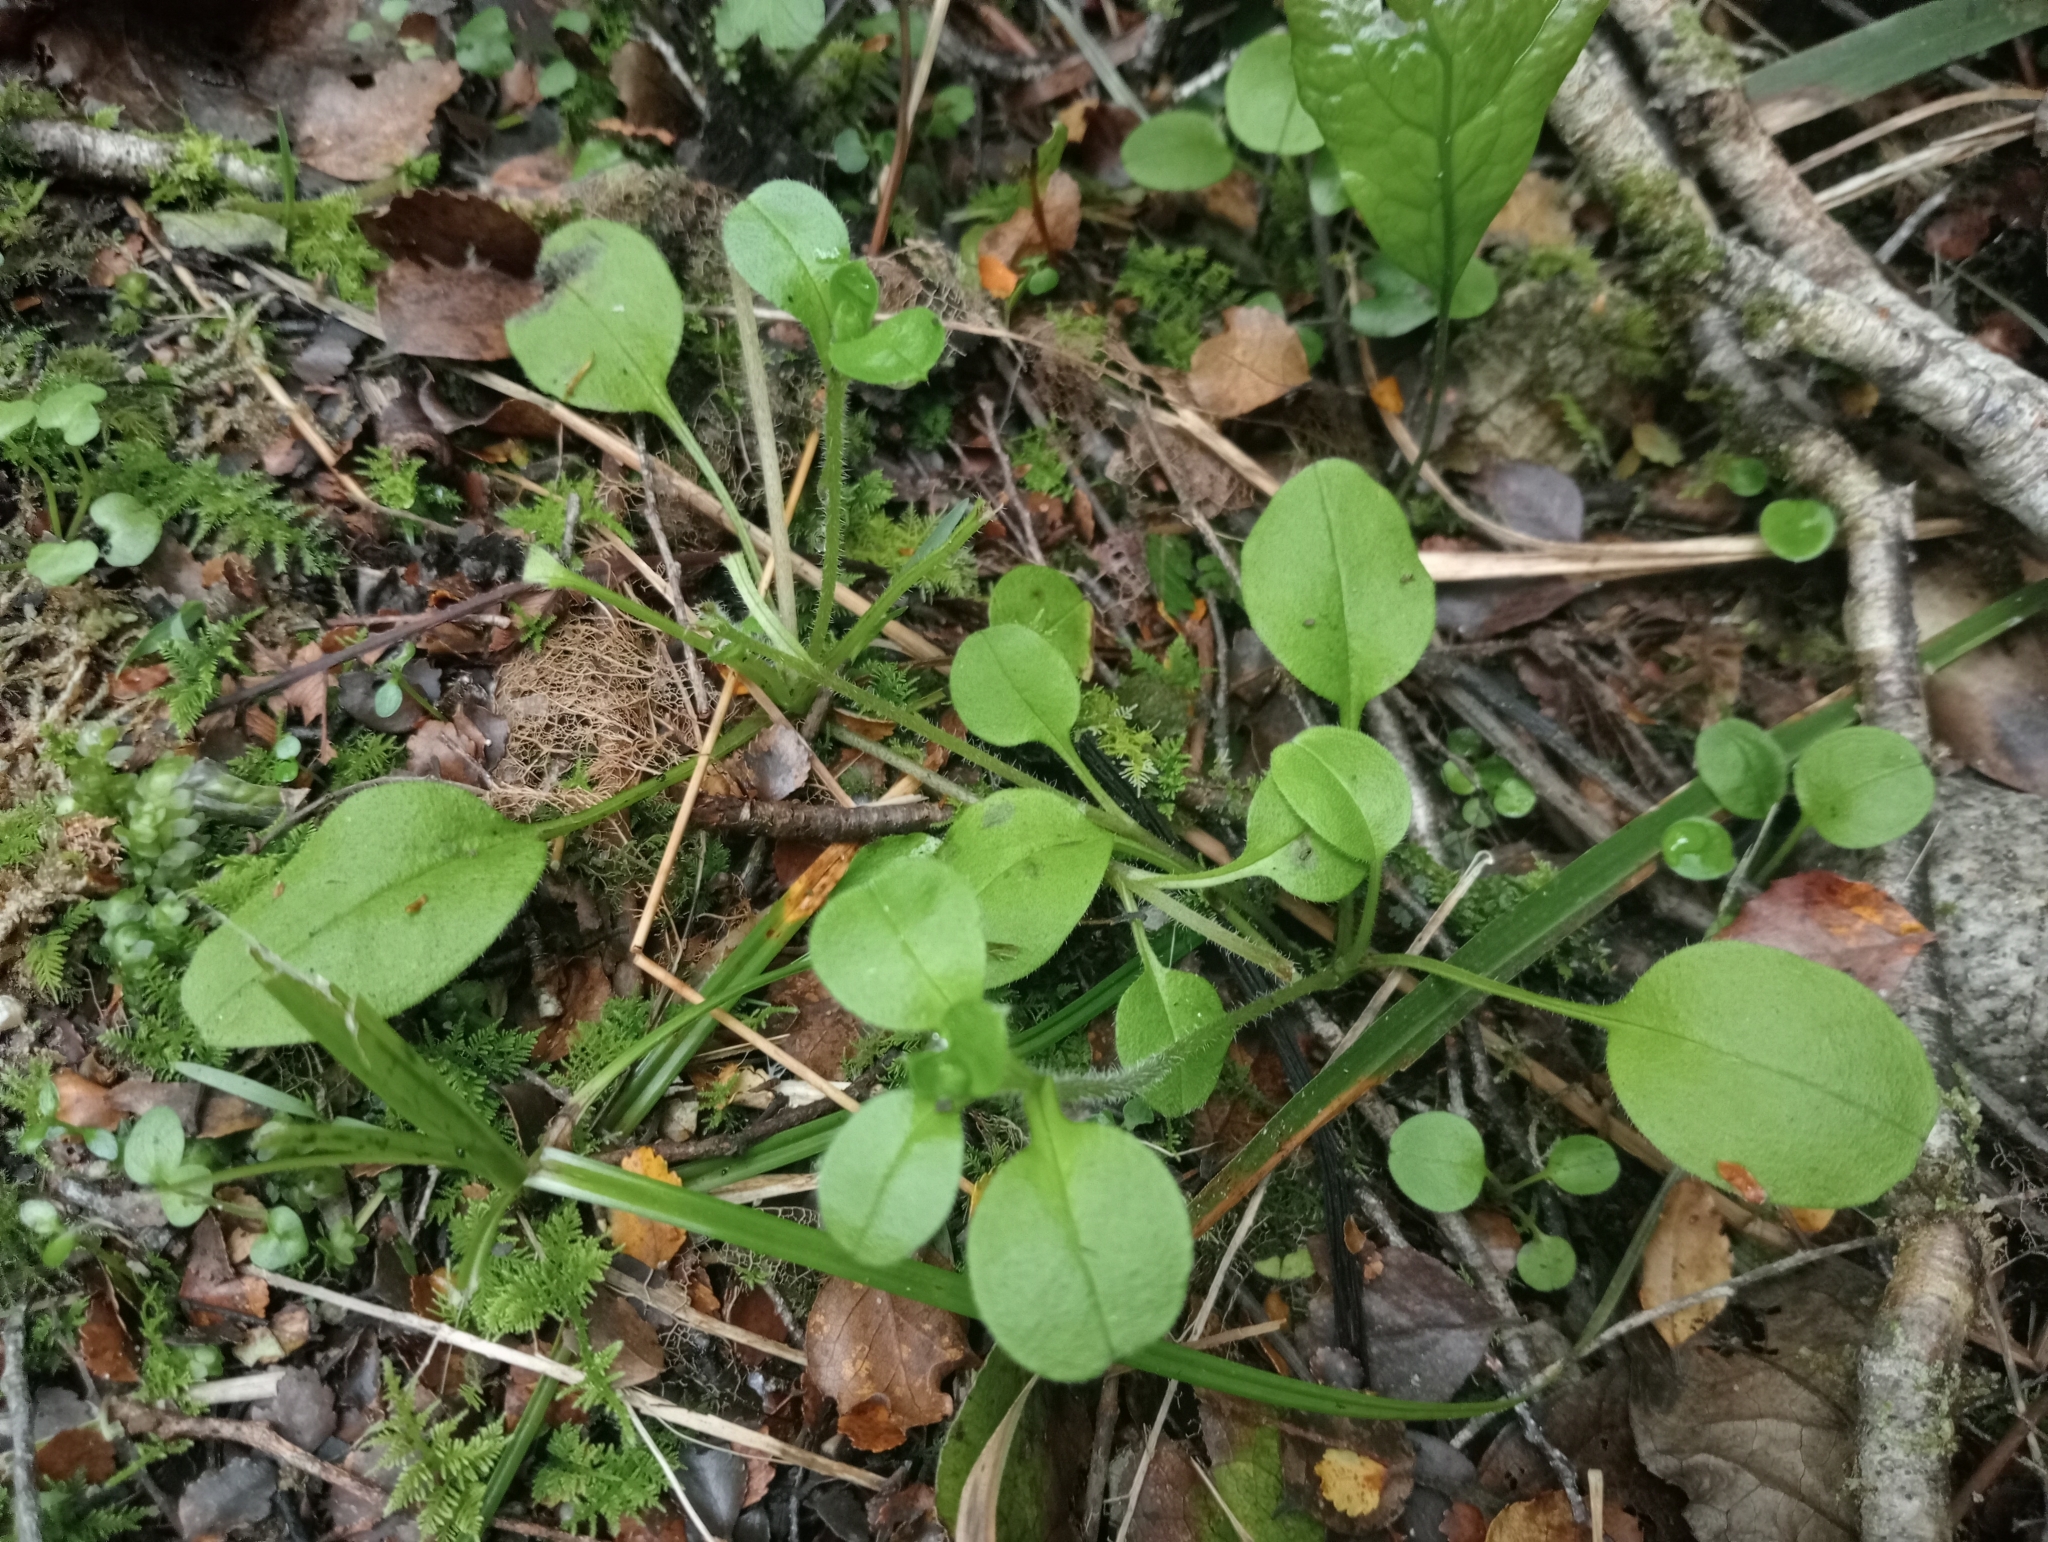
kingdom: Plantae
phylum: Tracheophyta
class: Magnoliopsida
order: Boraginales
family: Boraginaceae
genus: Myosotis
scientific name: Myosotis forsteri
